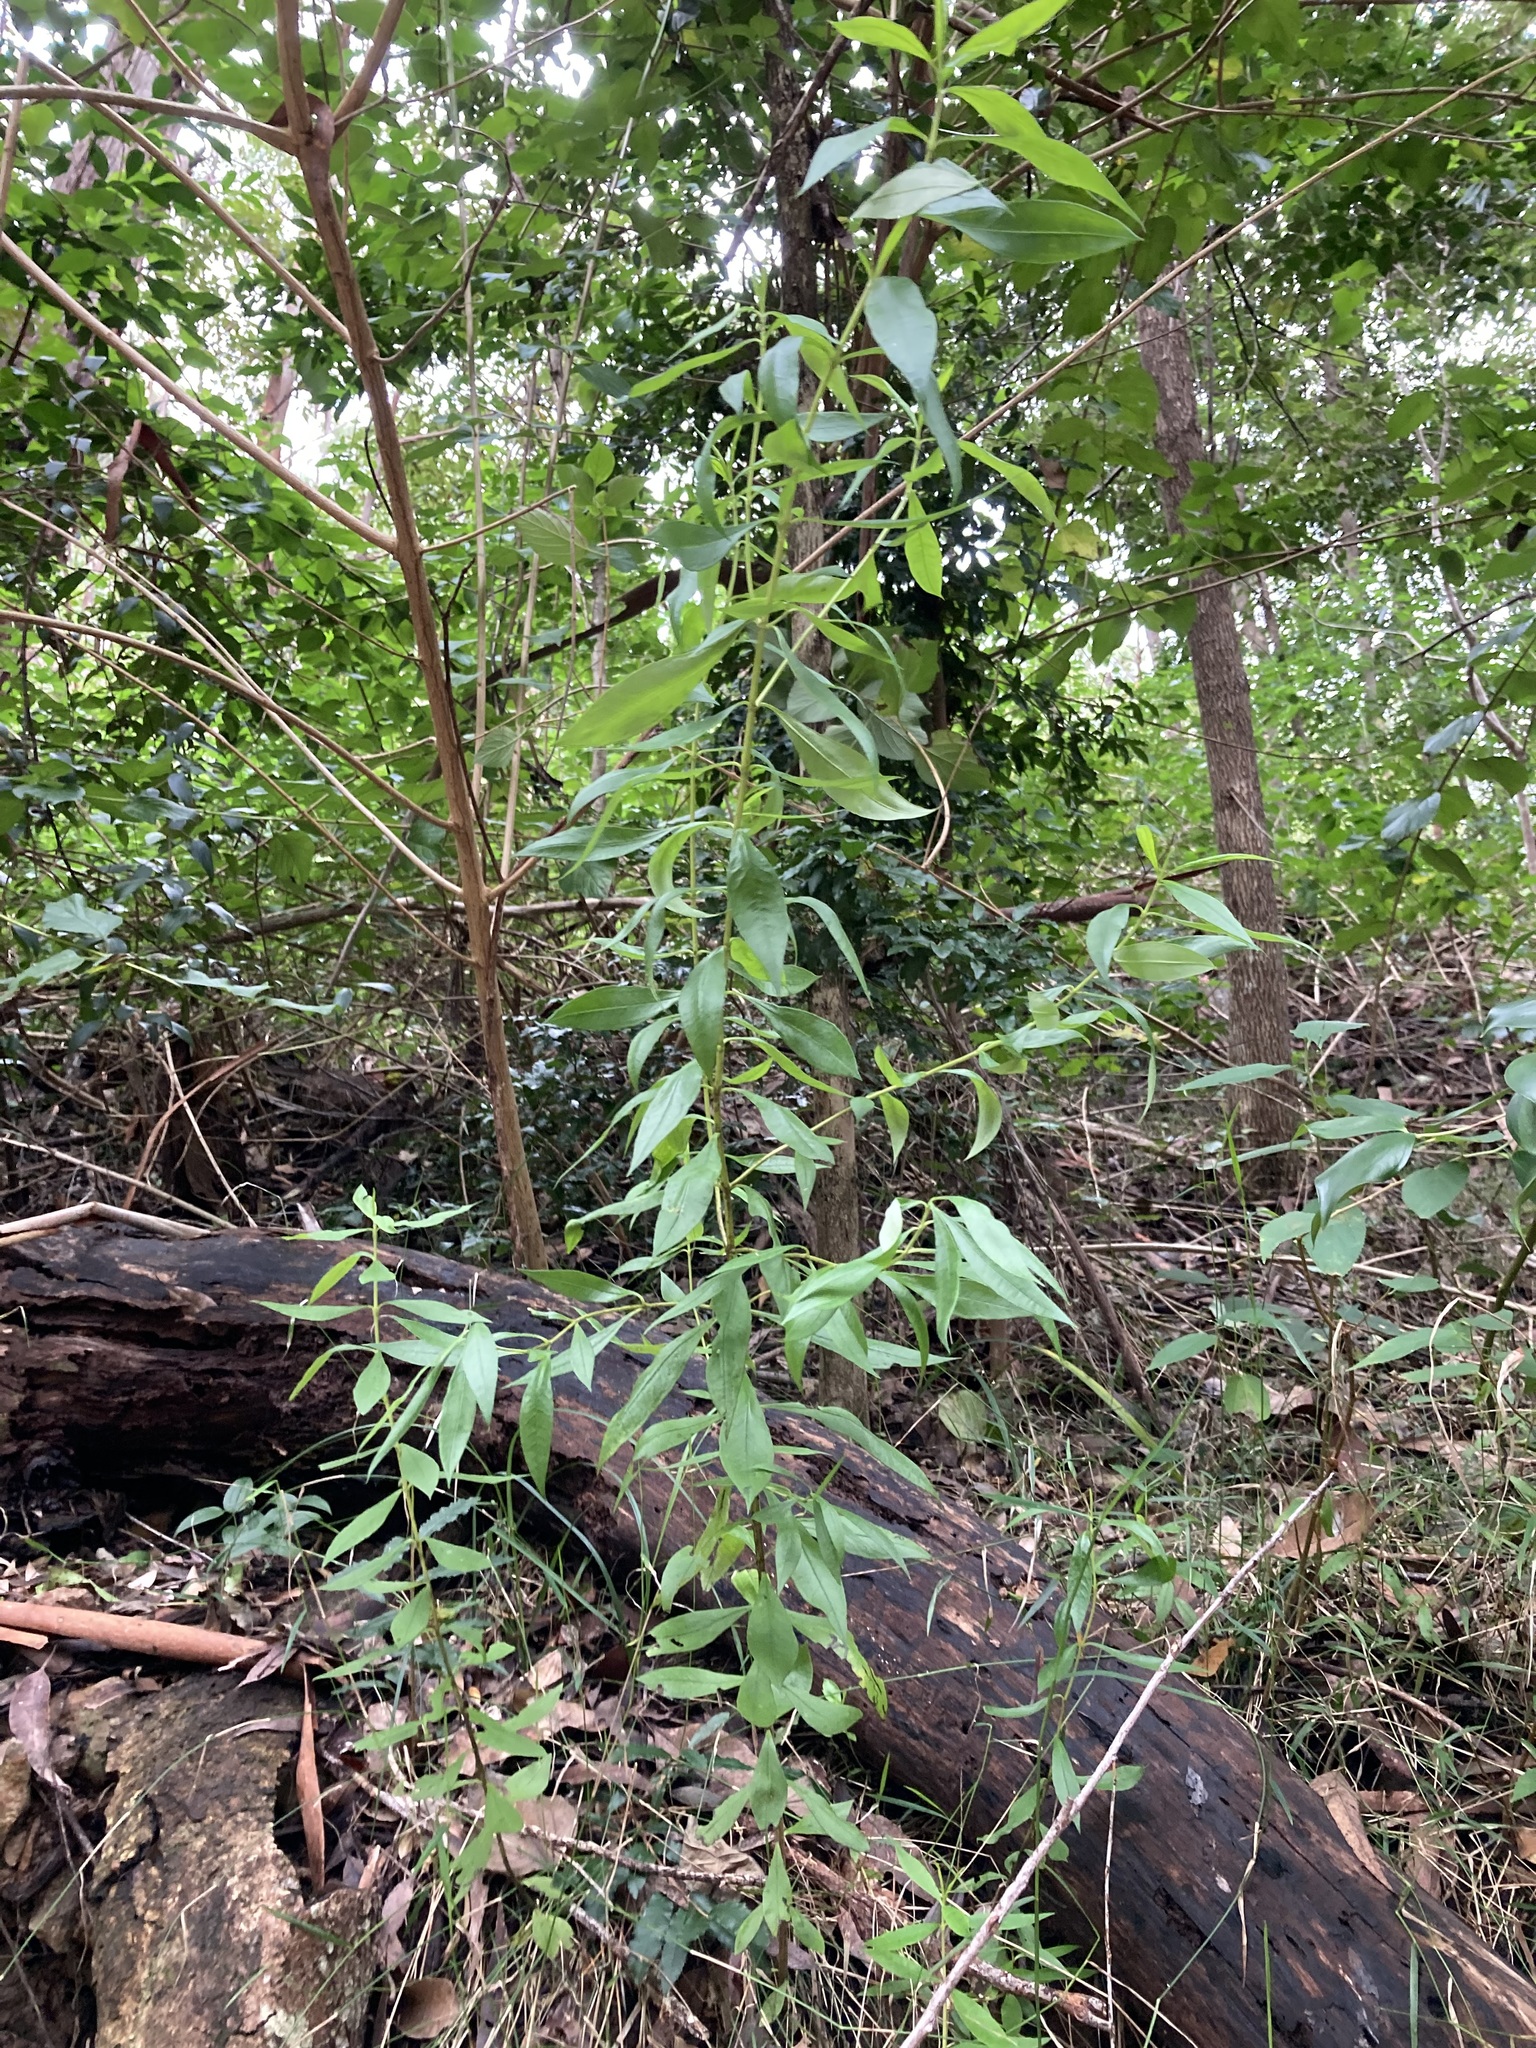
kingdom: Plantae
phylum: Tracheophyta
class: Magnoliopsida
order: Gentianales
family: Loganiaceae
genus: Logania
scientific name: Logania albiflora
